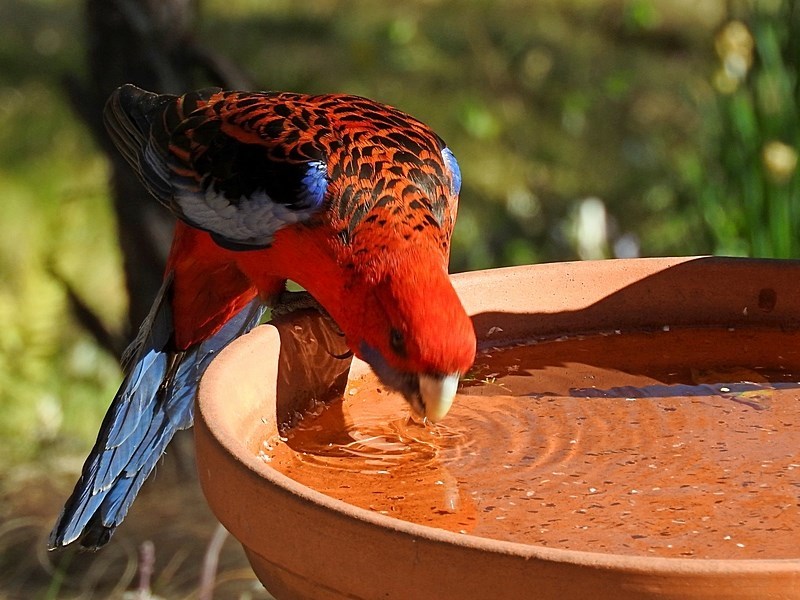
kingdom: Animalia
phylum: Chordata
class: Aves
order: Psittaciformes
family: Psittacidae
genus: Platycercus
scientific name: Platycercus elegans
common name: Crimson rosella
